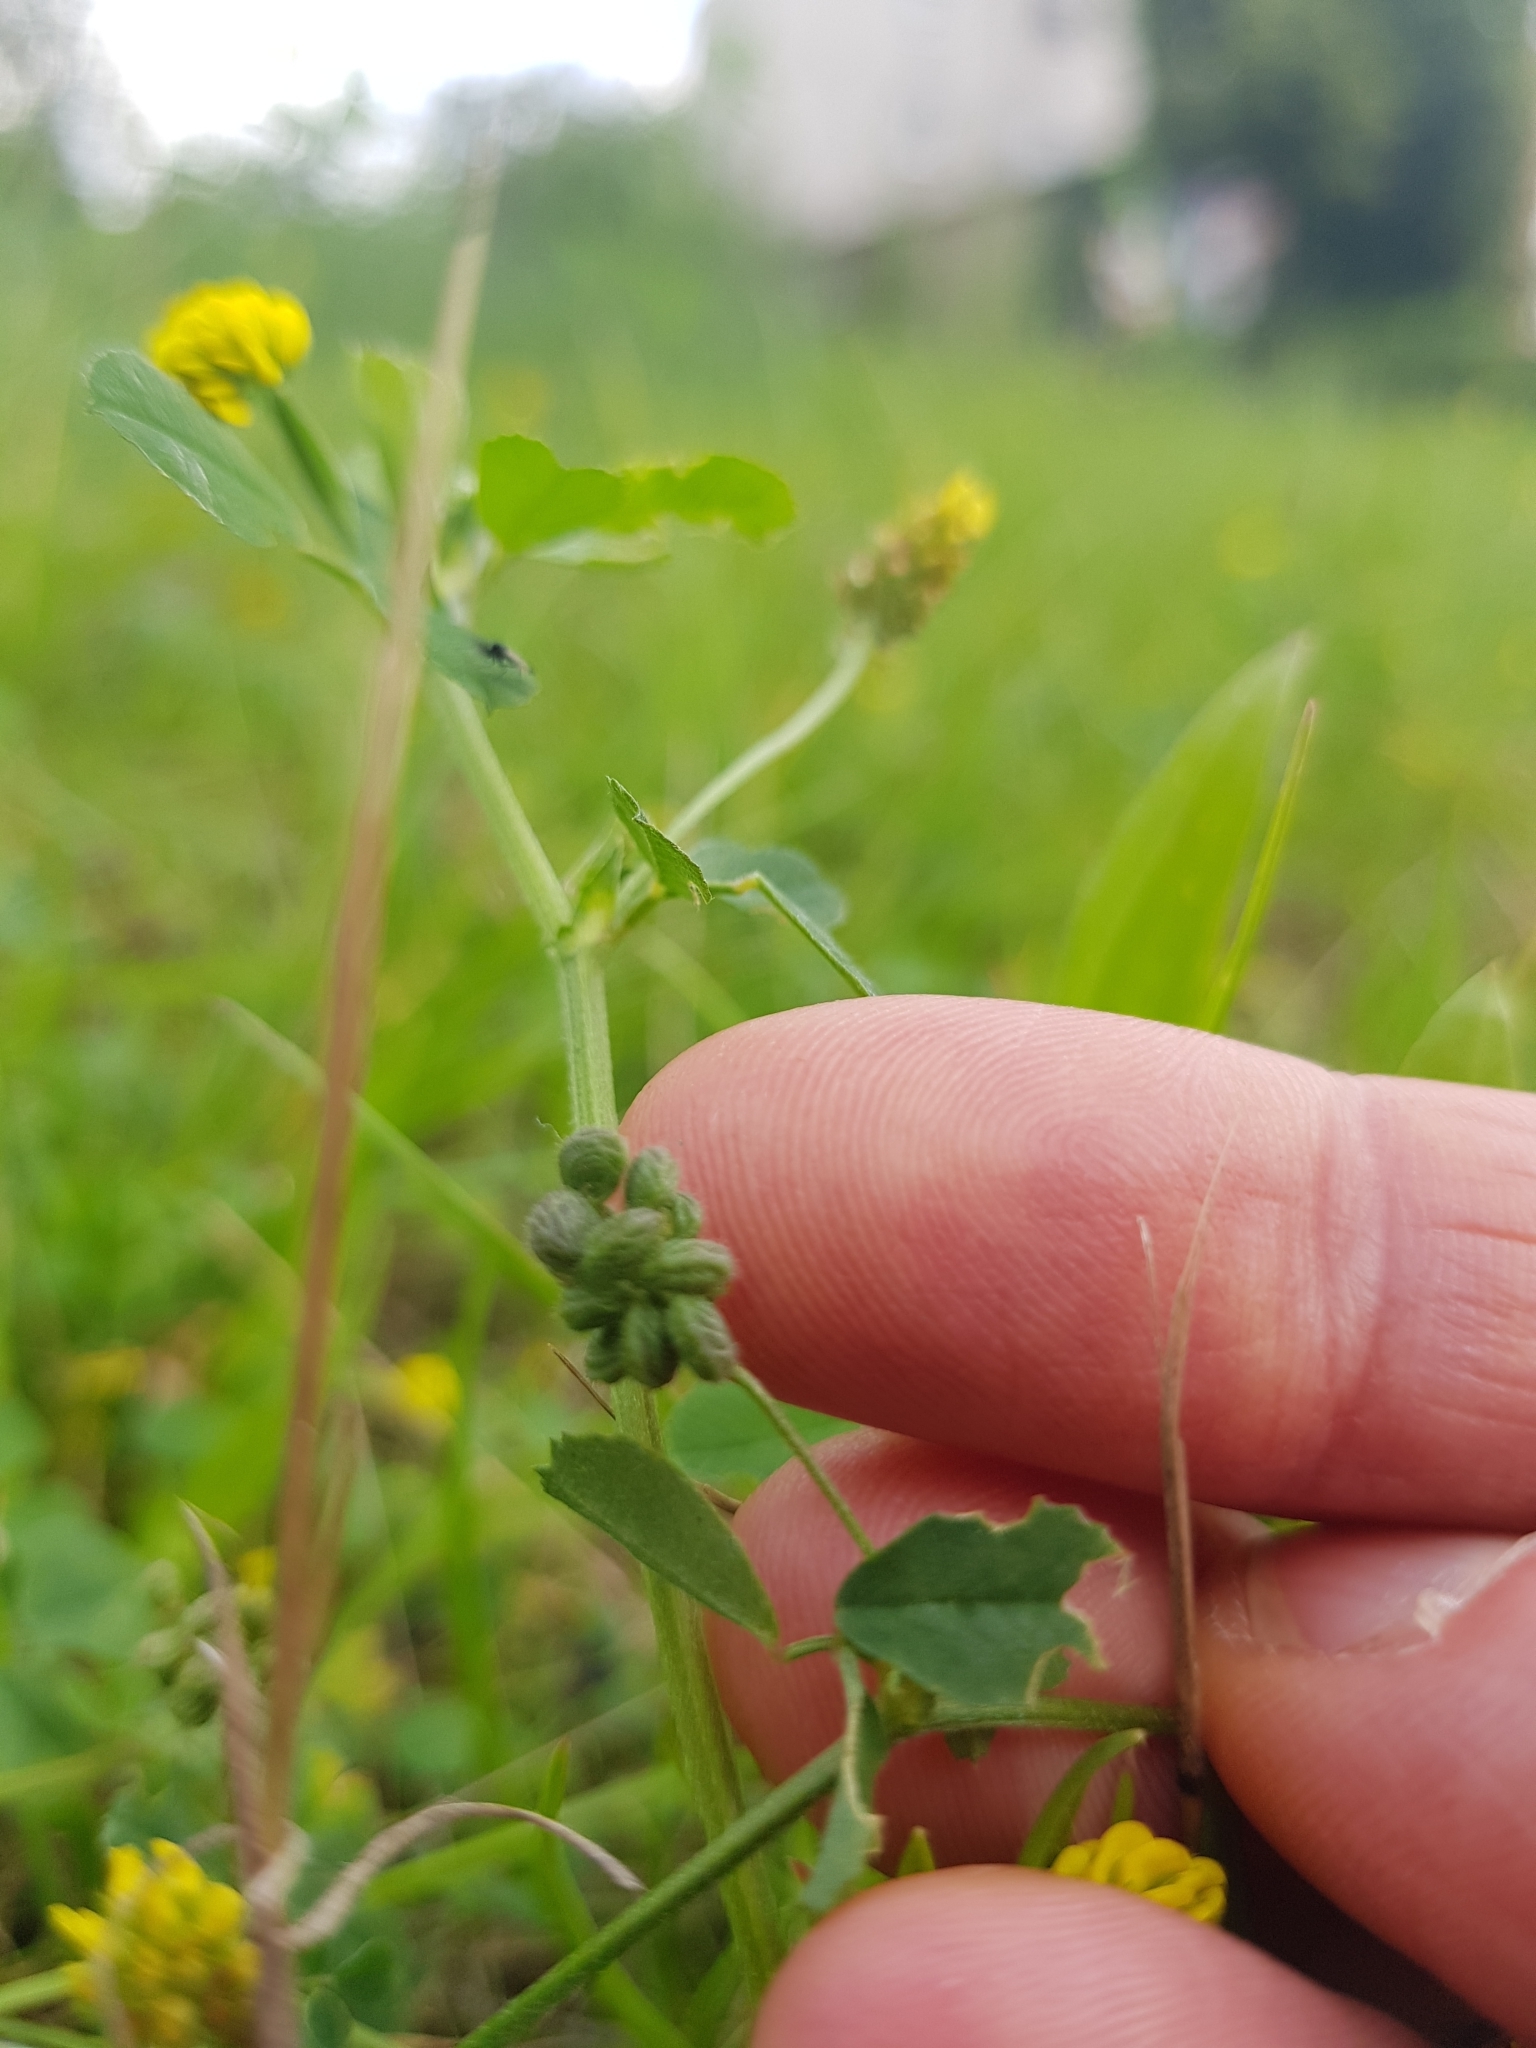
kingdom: Plantae
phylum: Tracheophyta
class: Magnoliopsida
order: Fabales
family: Fabaceae
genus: Medicago
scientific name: Medicago lupulina
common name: Black medick
